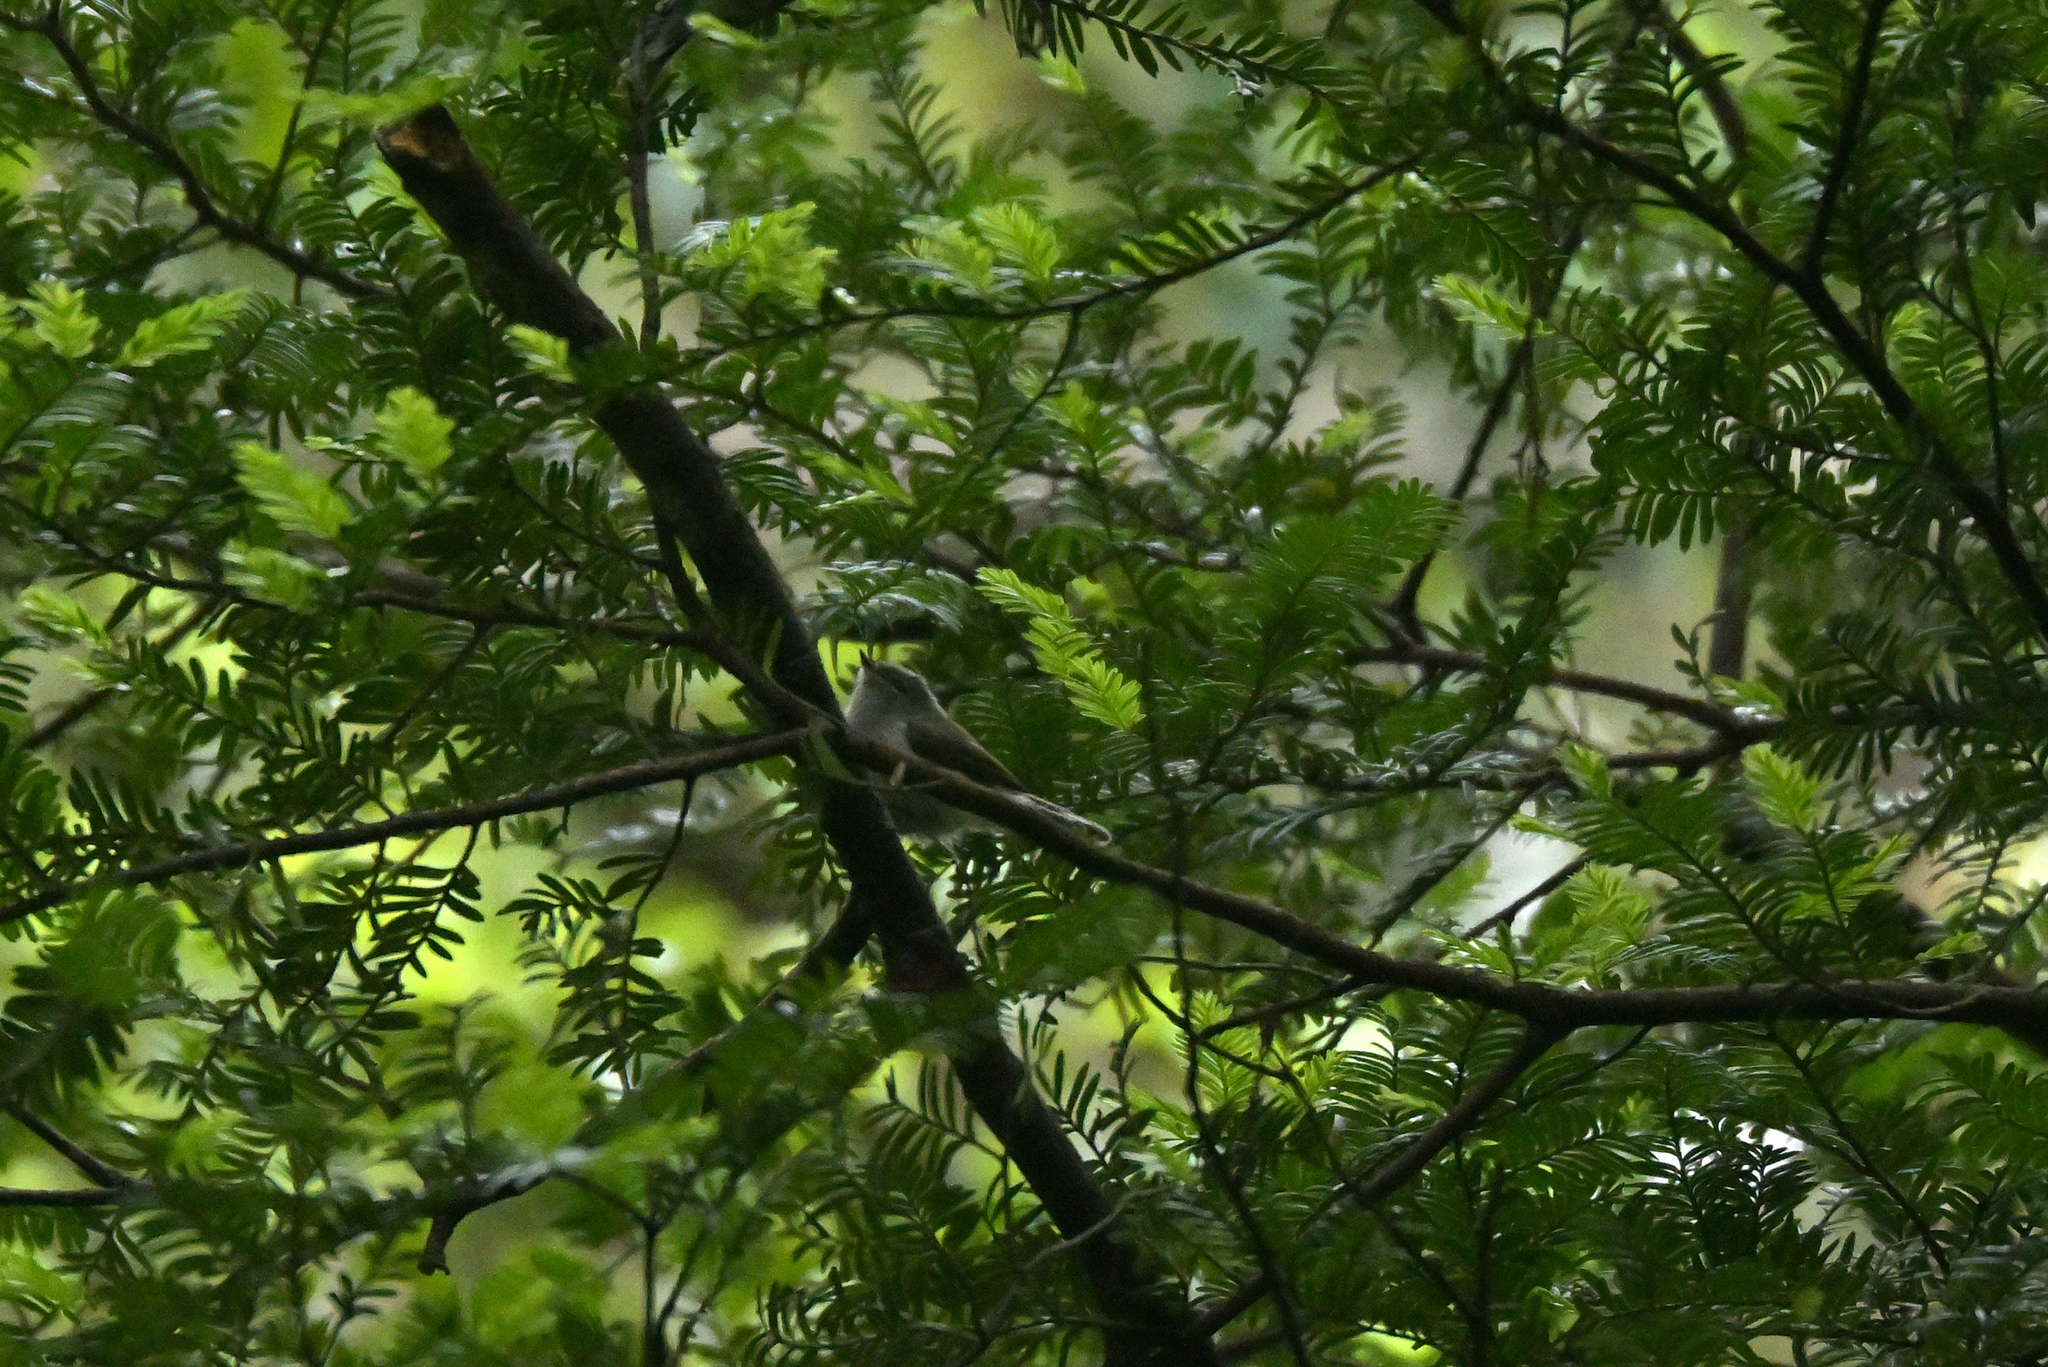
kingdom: Animalia
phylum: Chordata
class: Aves
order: Passeriformes
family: Acanthizidae
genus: Gerygone
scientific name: Gerygone igata
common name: Grey gerygone
